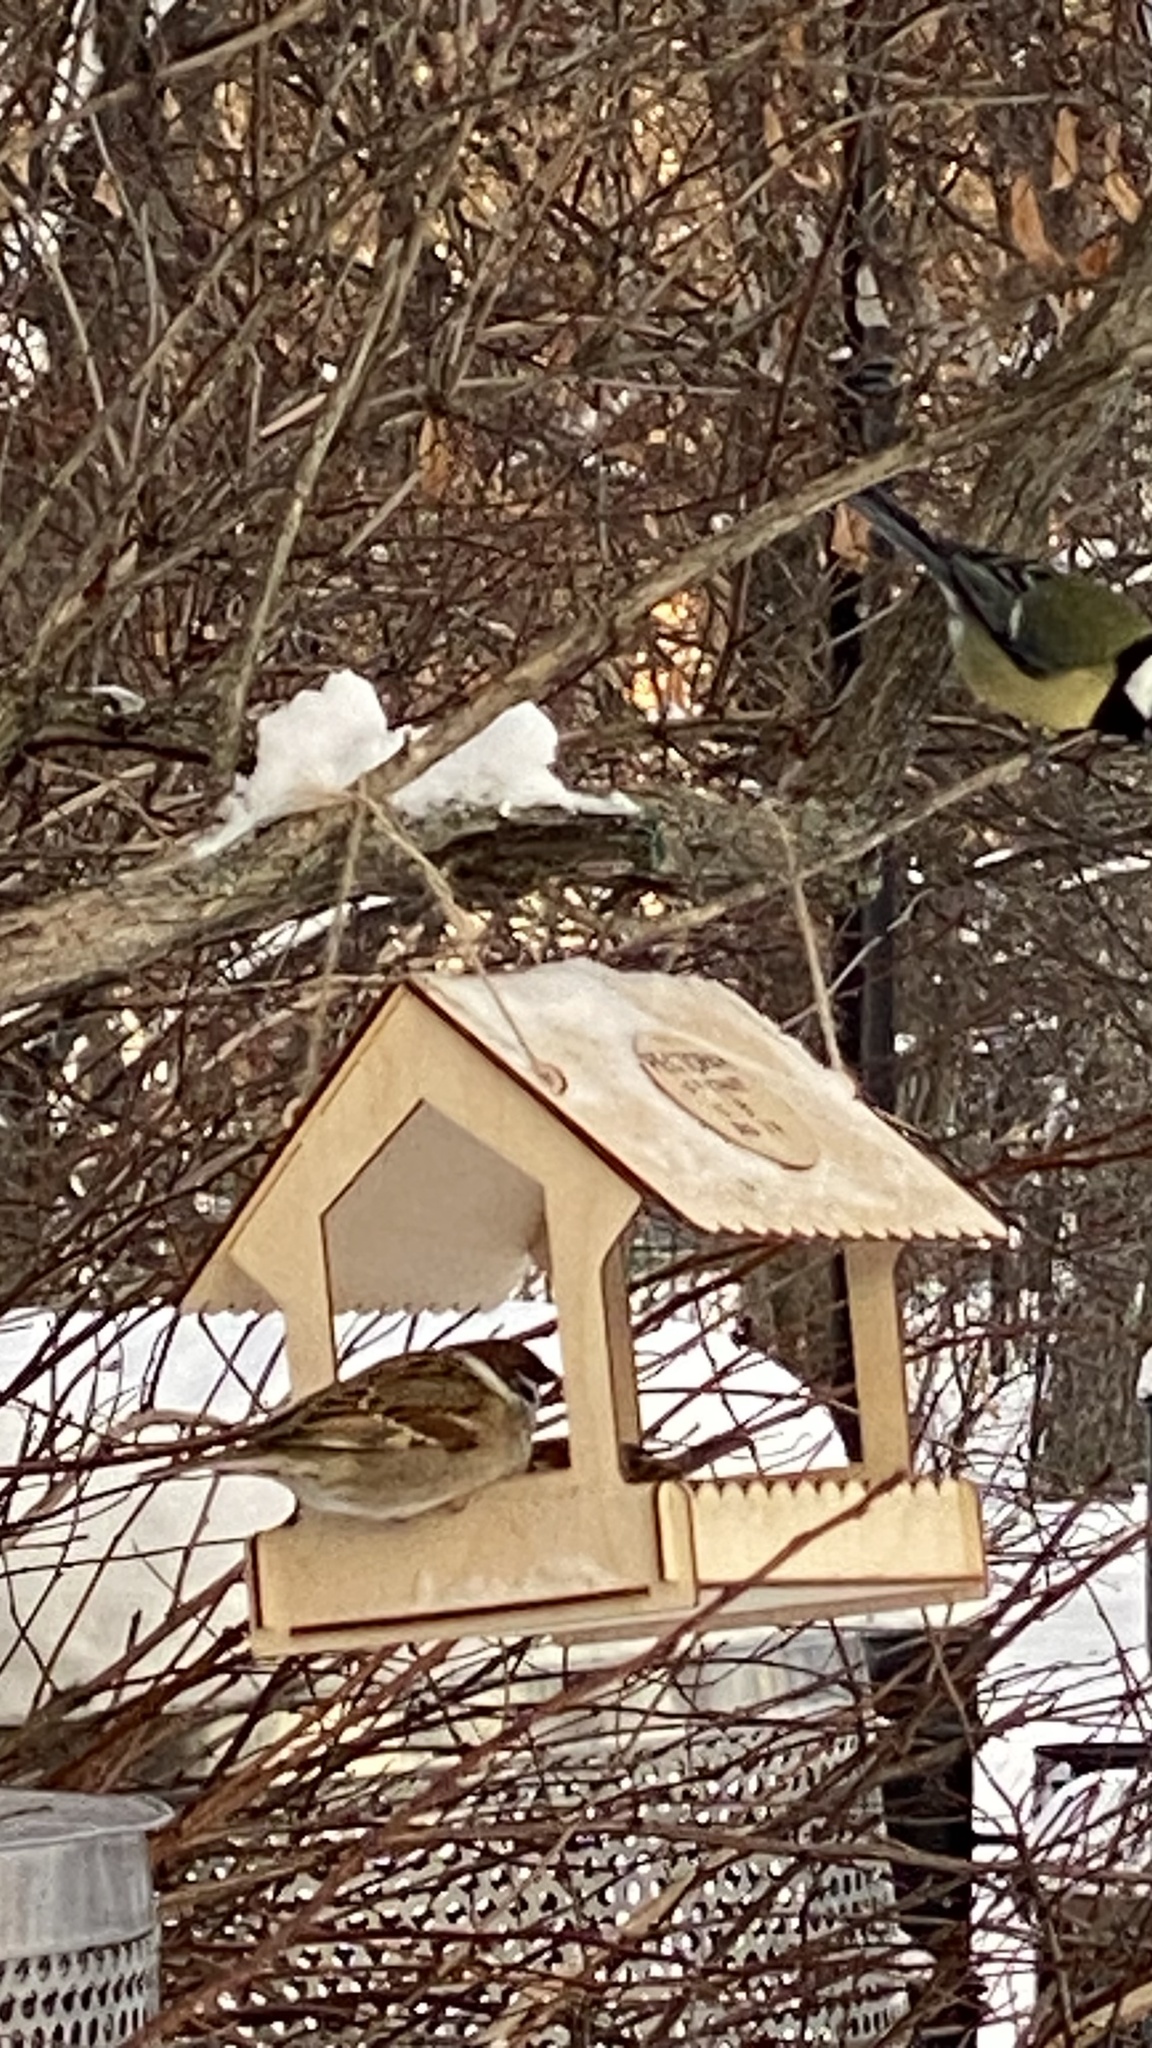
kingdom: Animalia
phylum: Chordata
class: Aves
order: Passeriformes
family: Paridae
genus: Parus
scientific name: Parus major
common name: Great tit
